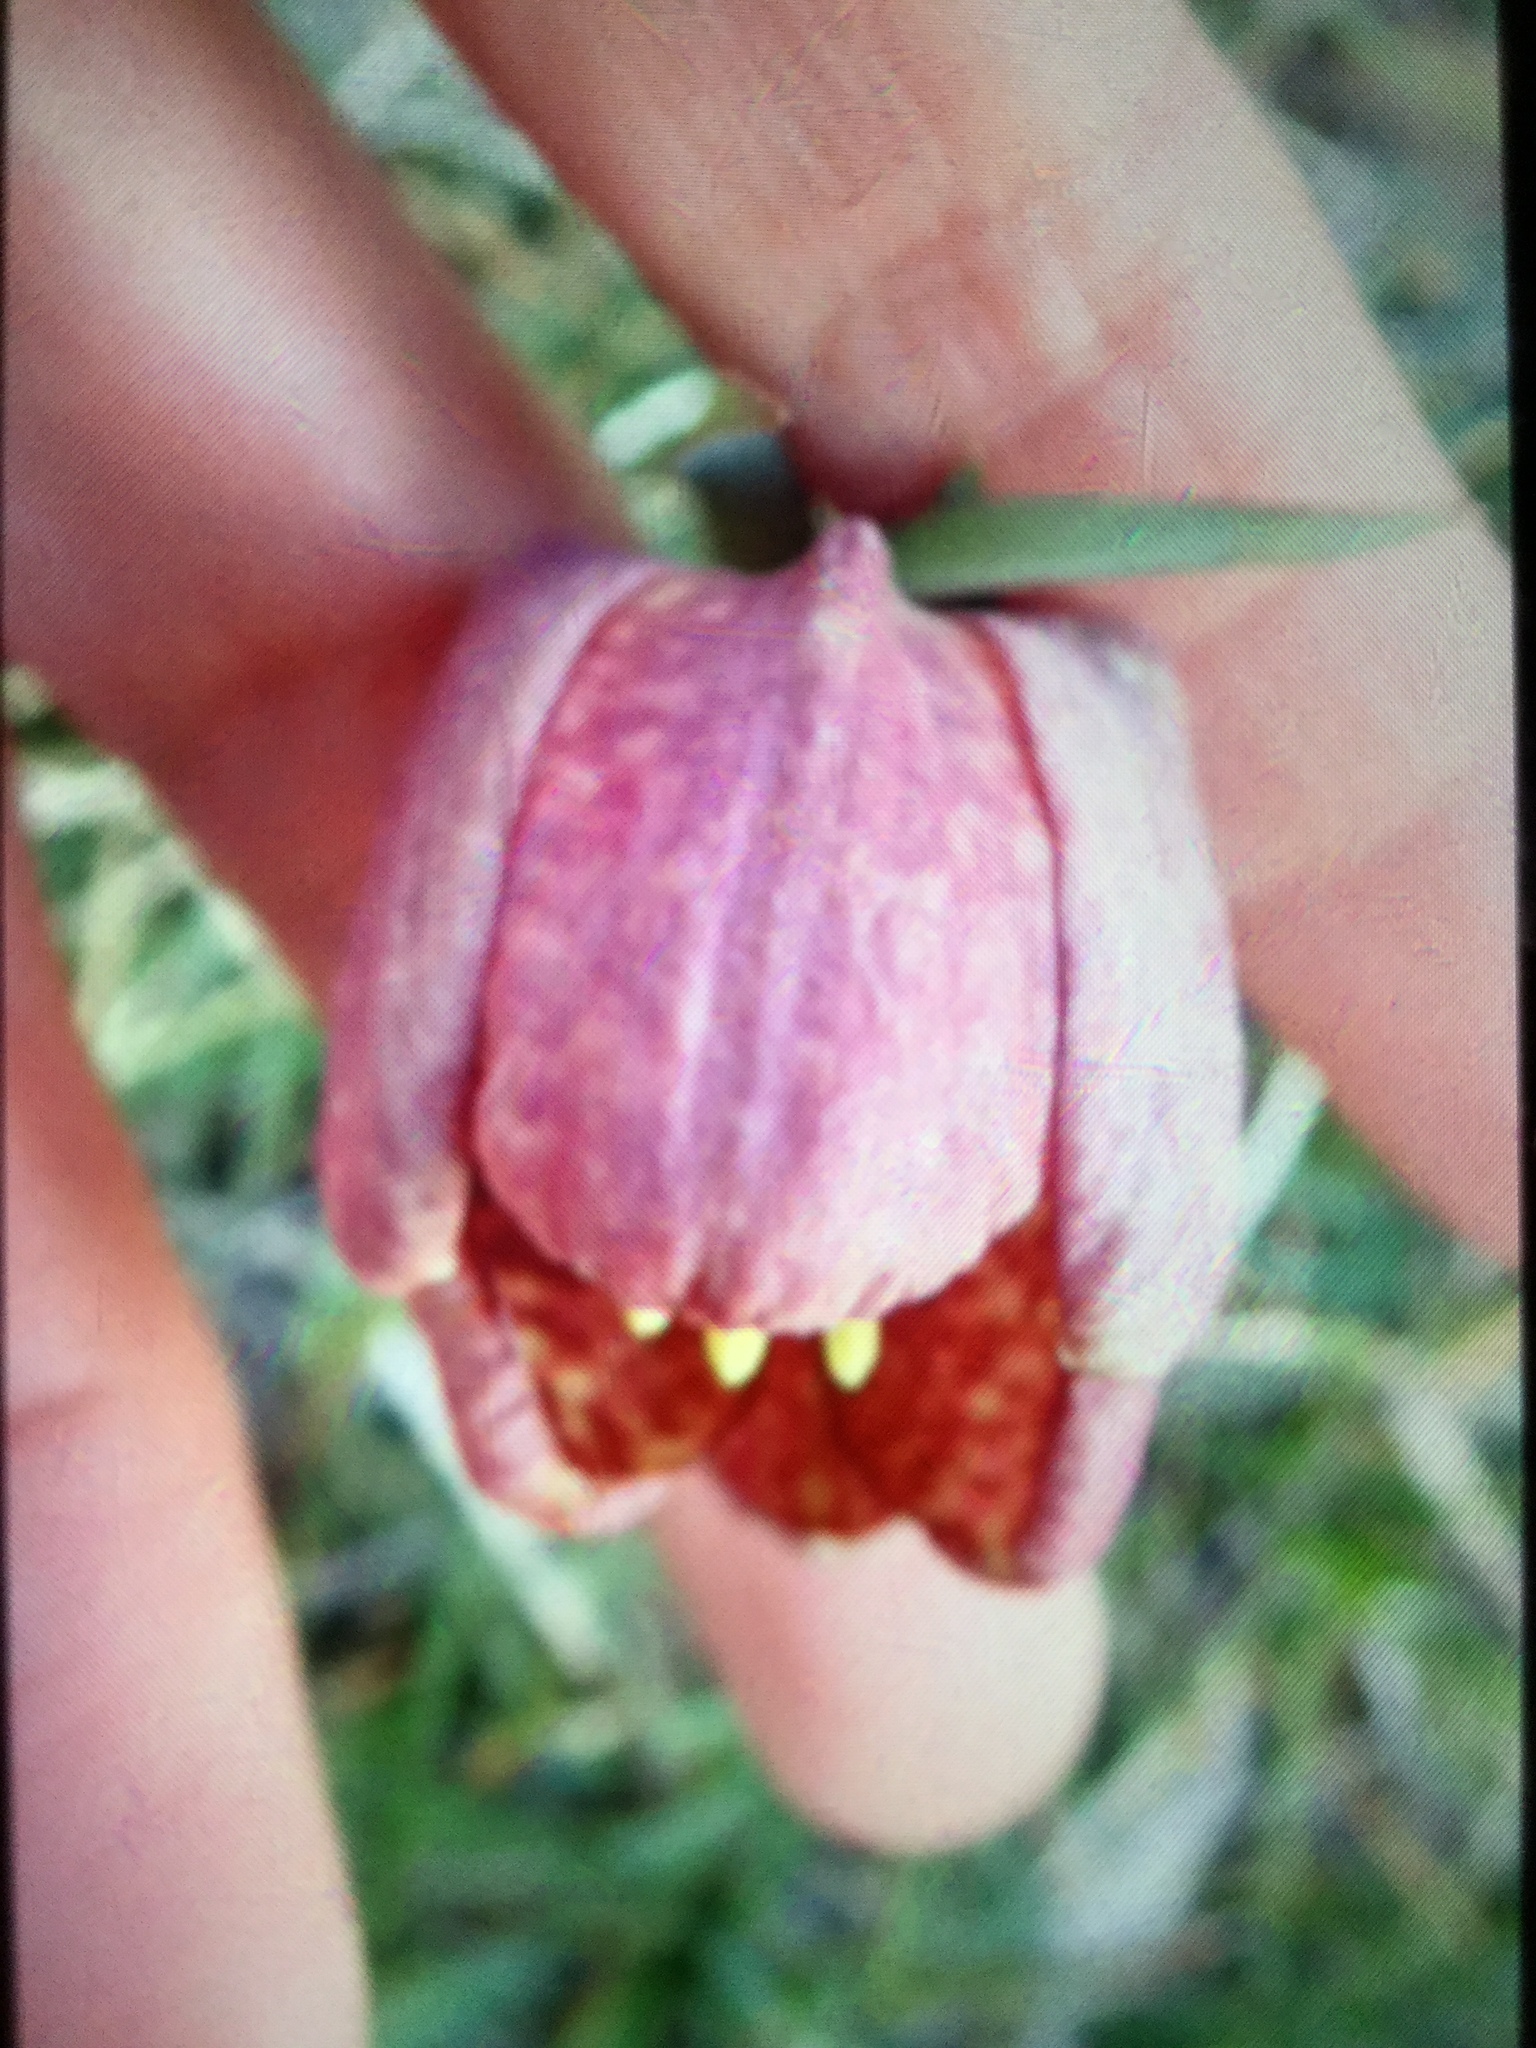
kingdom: Plantae
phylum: Tracheophyta
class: Liliopsida
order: Liliales
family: Liliaceae
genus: Fritillaria
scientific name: Fritillaria tubaeformis
